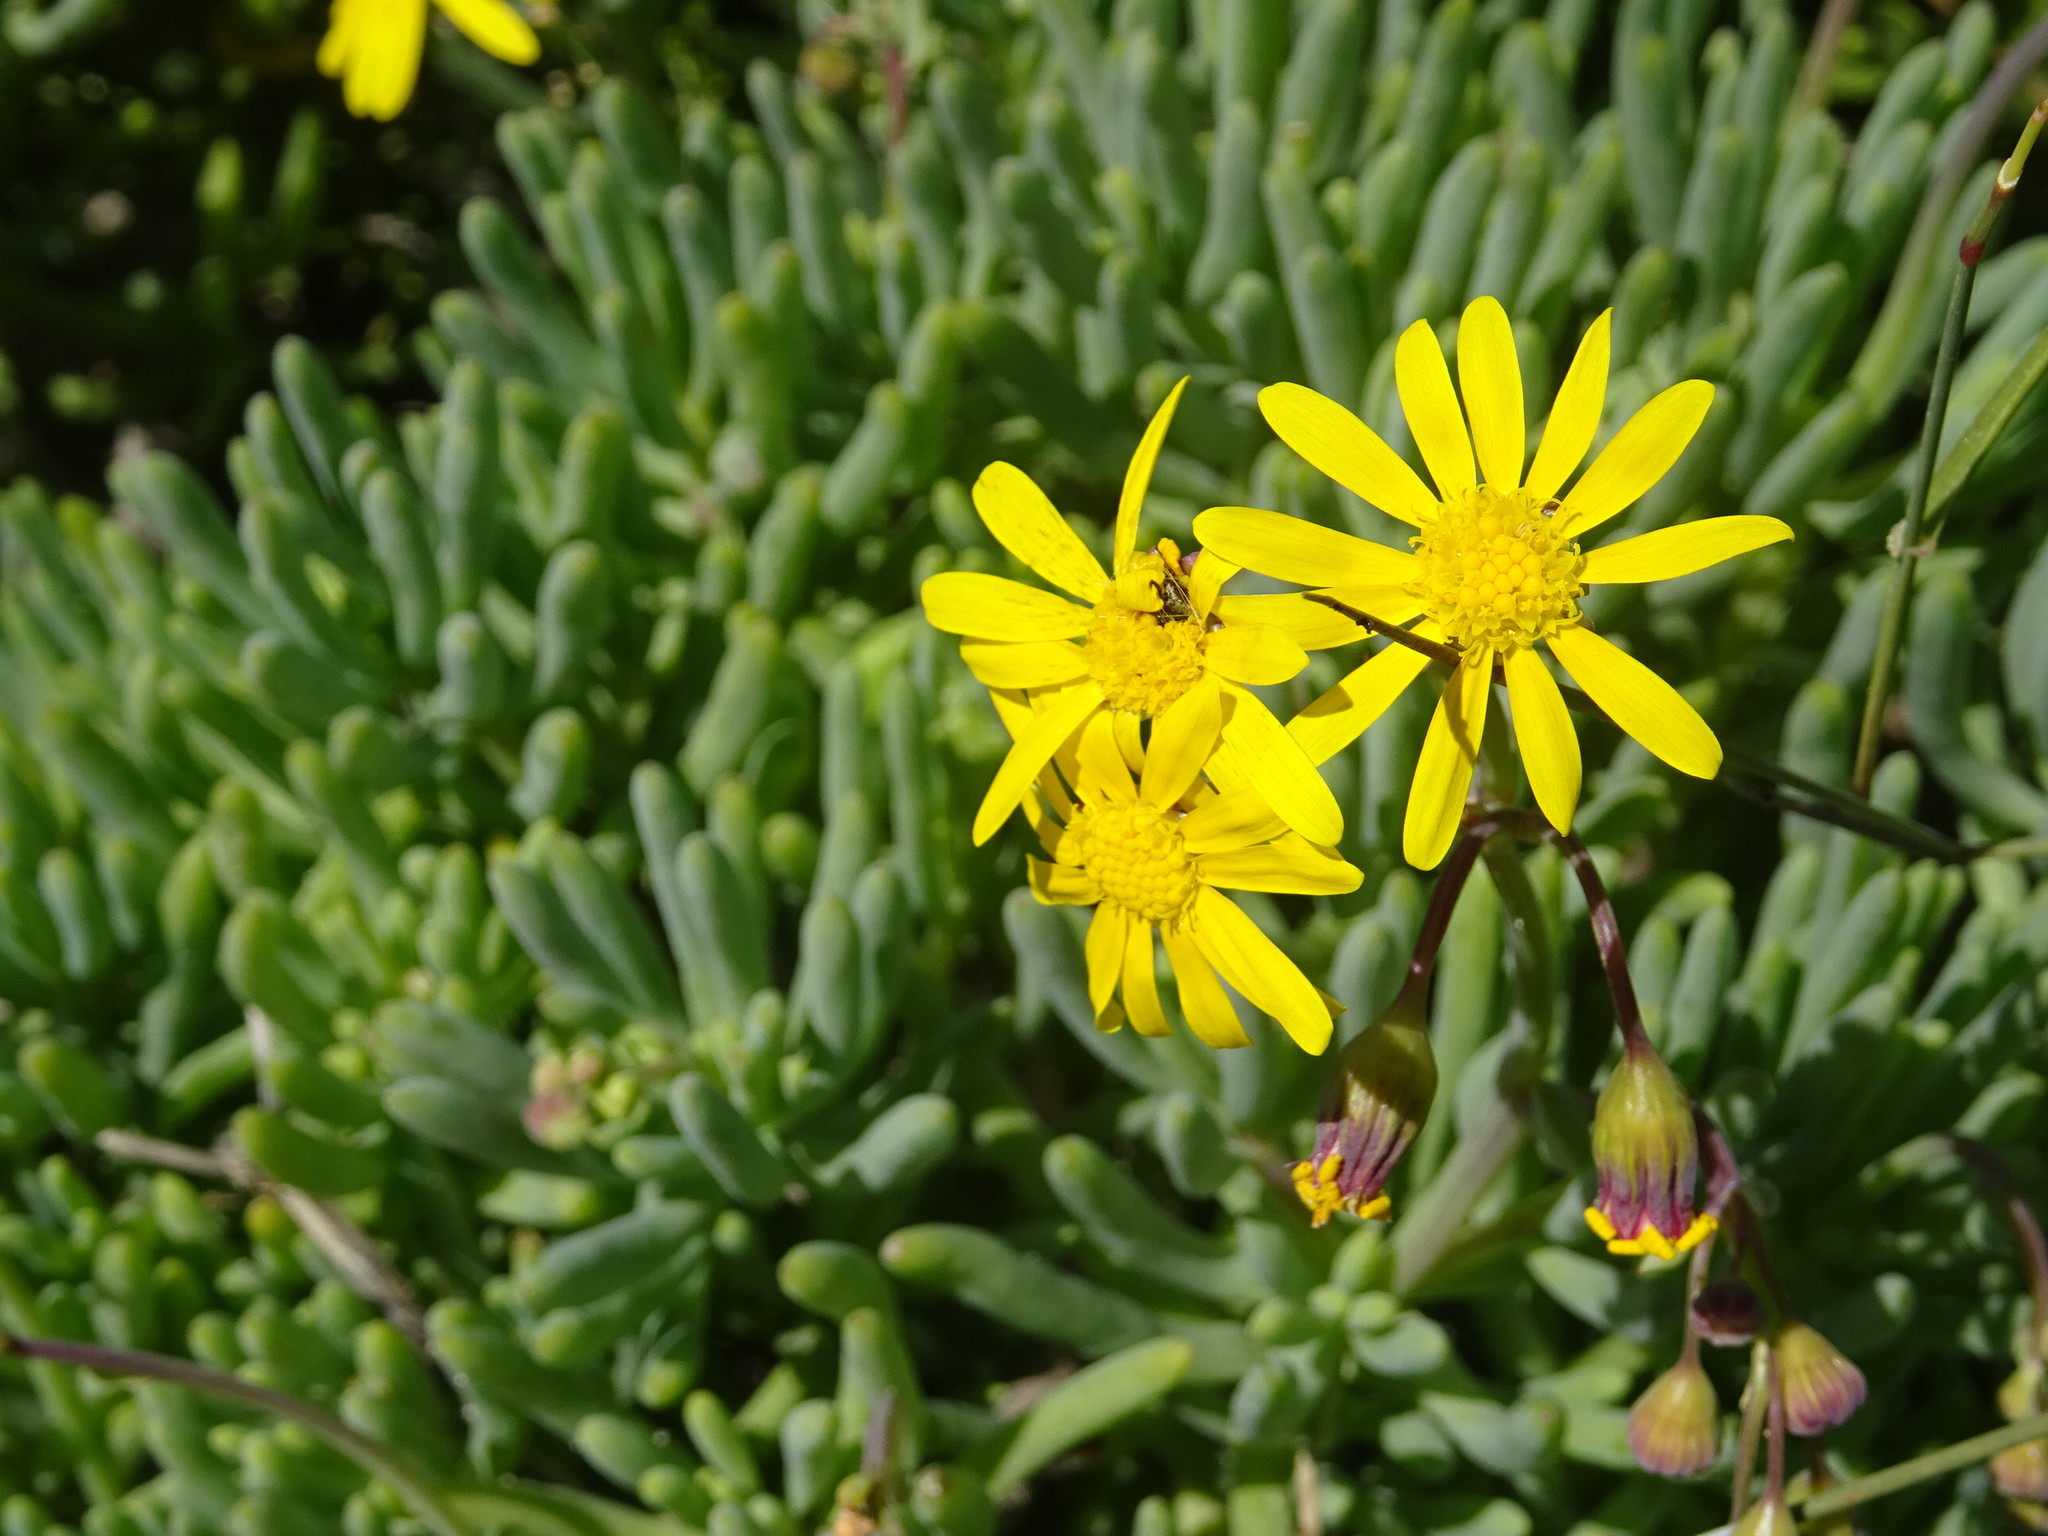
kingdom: Plantae
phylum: Tracheophyta
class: Magnoliopsida
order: Asterales
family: Asteraceae
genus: Crassothonna
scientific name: Crassothonna cylindrica
